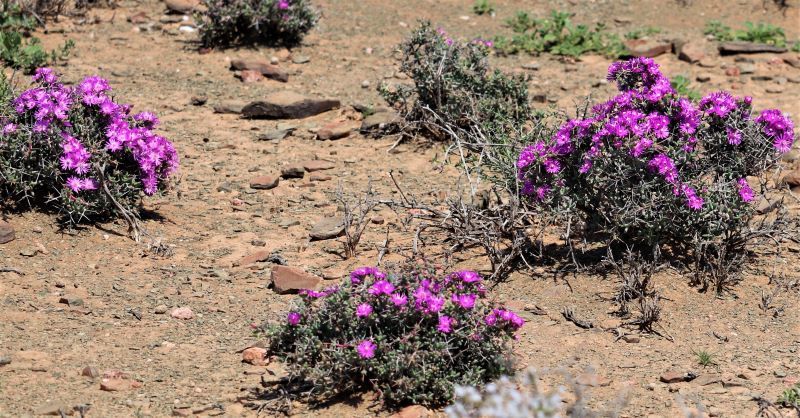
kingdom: Plantae
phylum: Tracheophyta
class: Magnoliopsida
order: Caryophyllales
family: Aizoaceae
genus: Ruschia
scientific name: Ruschia intricata
